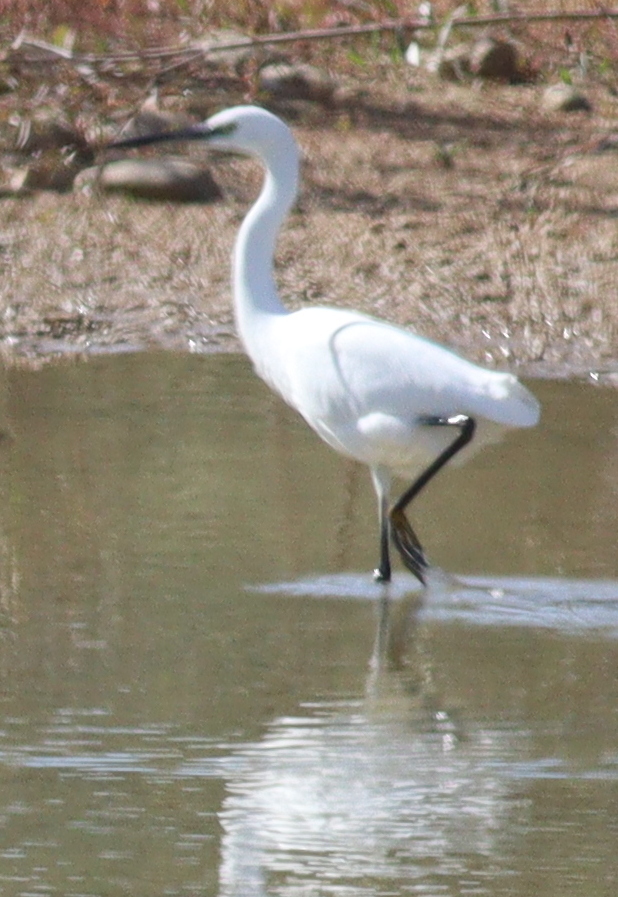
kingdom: Animalia
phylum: Chordata
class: Aves
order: Pelecaniformes
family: Ardeidae
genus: Egretta
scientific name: Egretta garzetta
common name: Little egret
